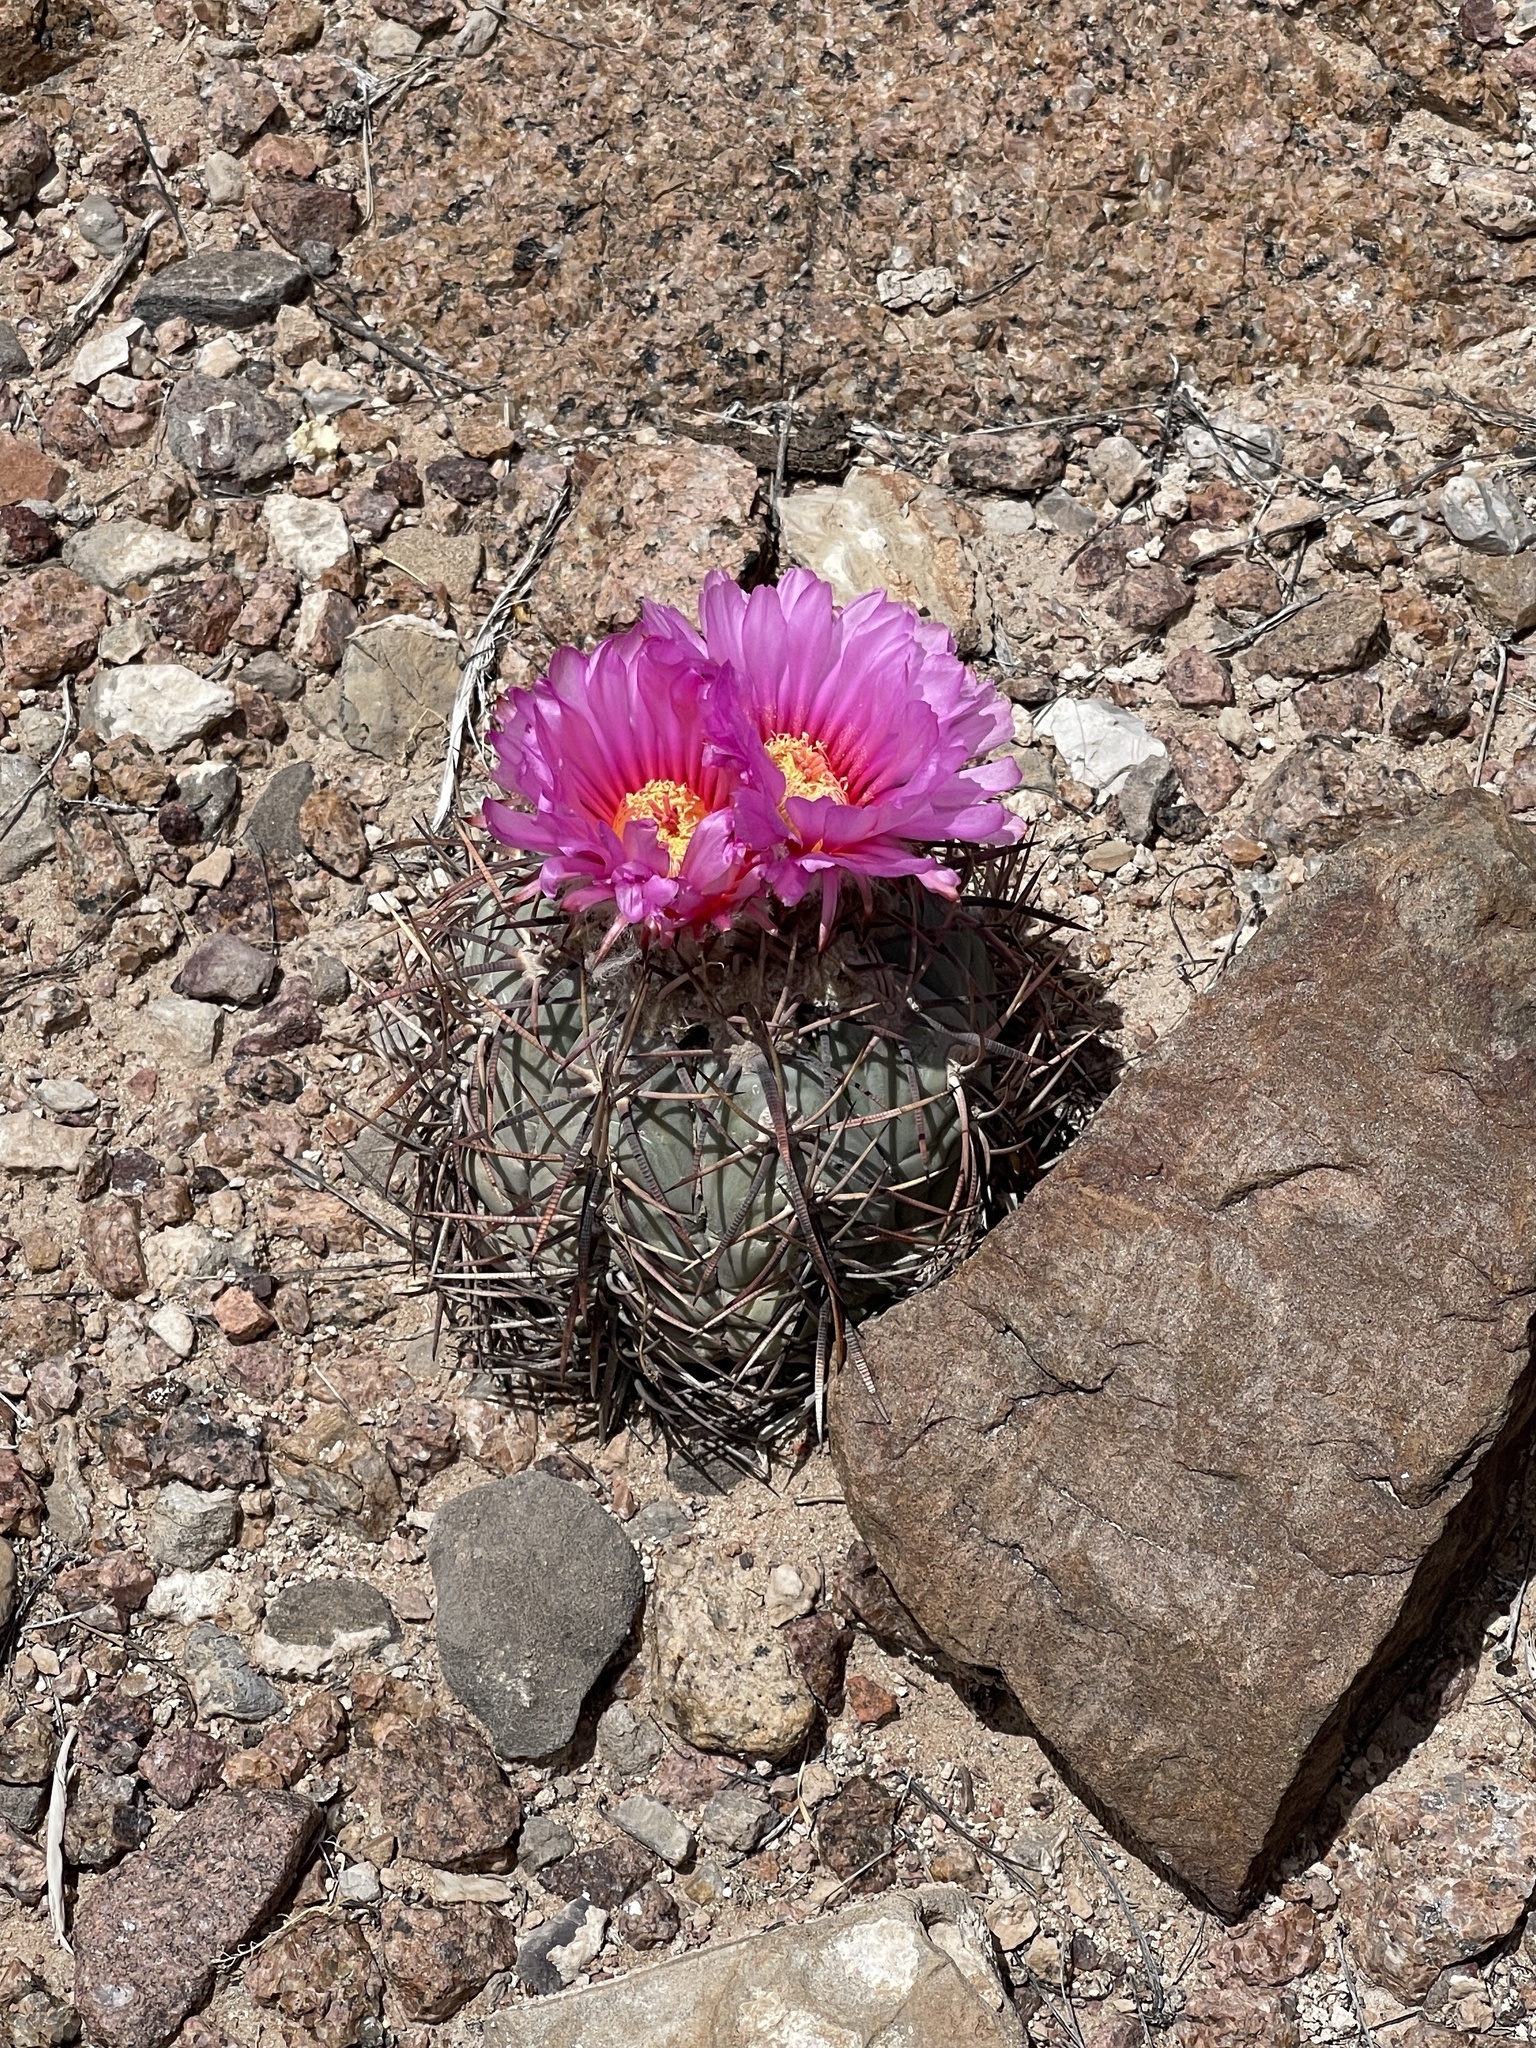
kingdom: Plantae
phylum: Tracheophyta
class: Magnoliopsida
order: Caryophyllales
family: Cactaceae
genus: Echinocactus
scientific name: Echinocactus horizonthalonius
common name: Devilshead
